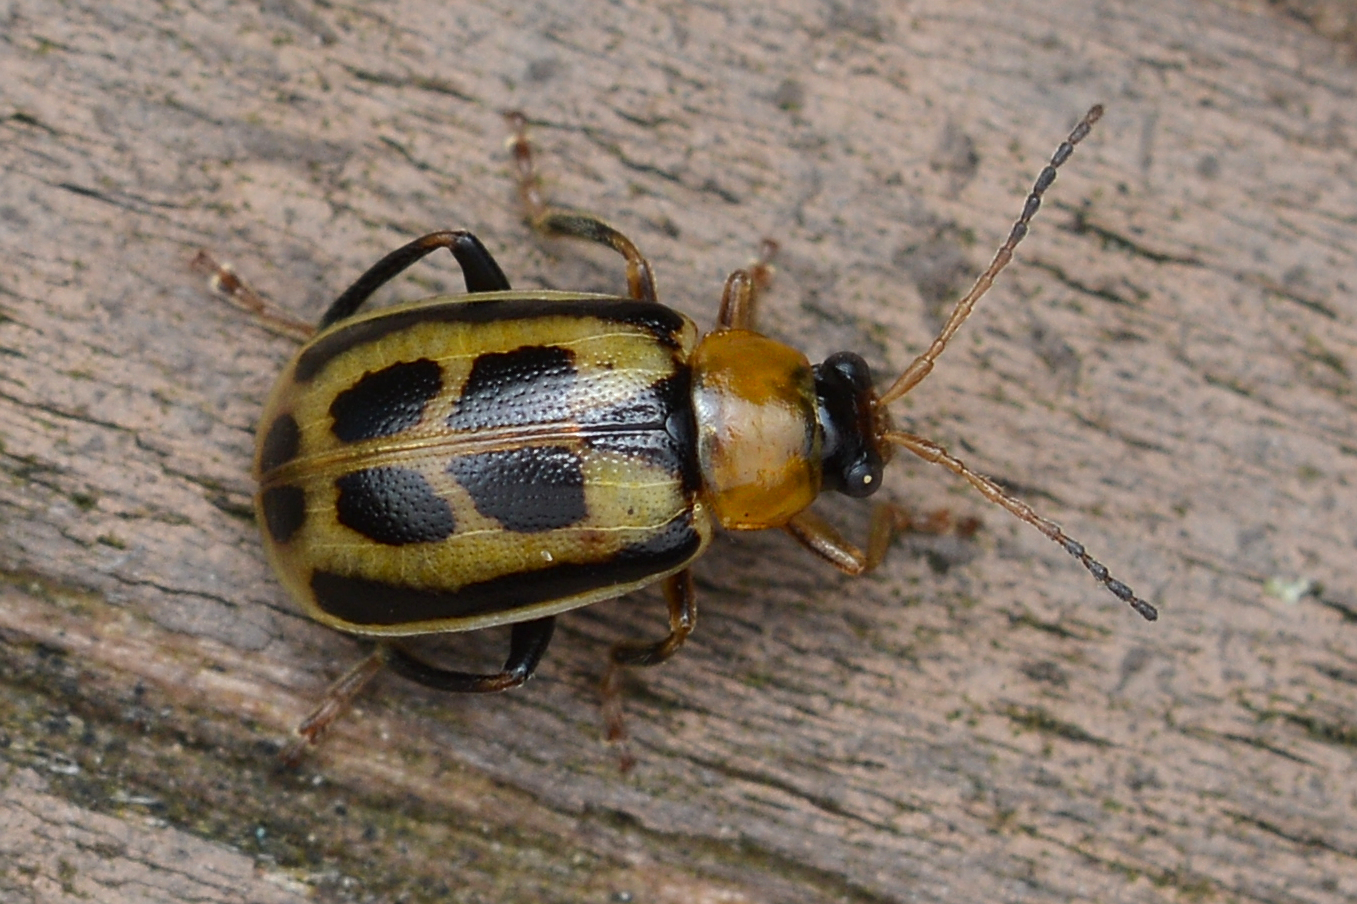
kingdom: Animalia
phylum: Arthropoda
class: Insecta
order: Coleoptera
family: Chrysomelidae
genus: Cerotoma
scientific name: Cerotoma trifurcata
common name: Bean leaf beetle
